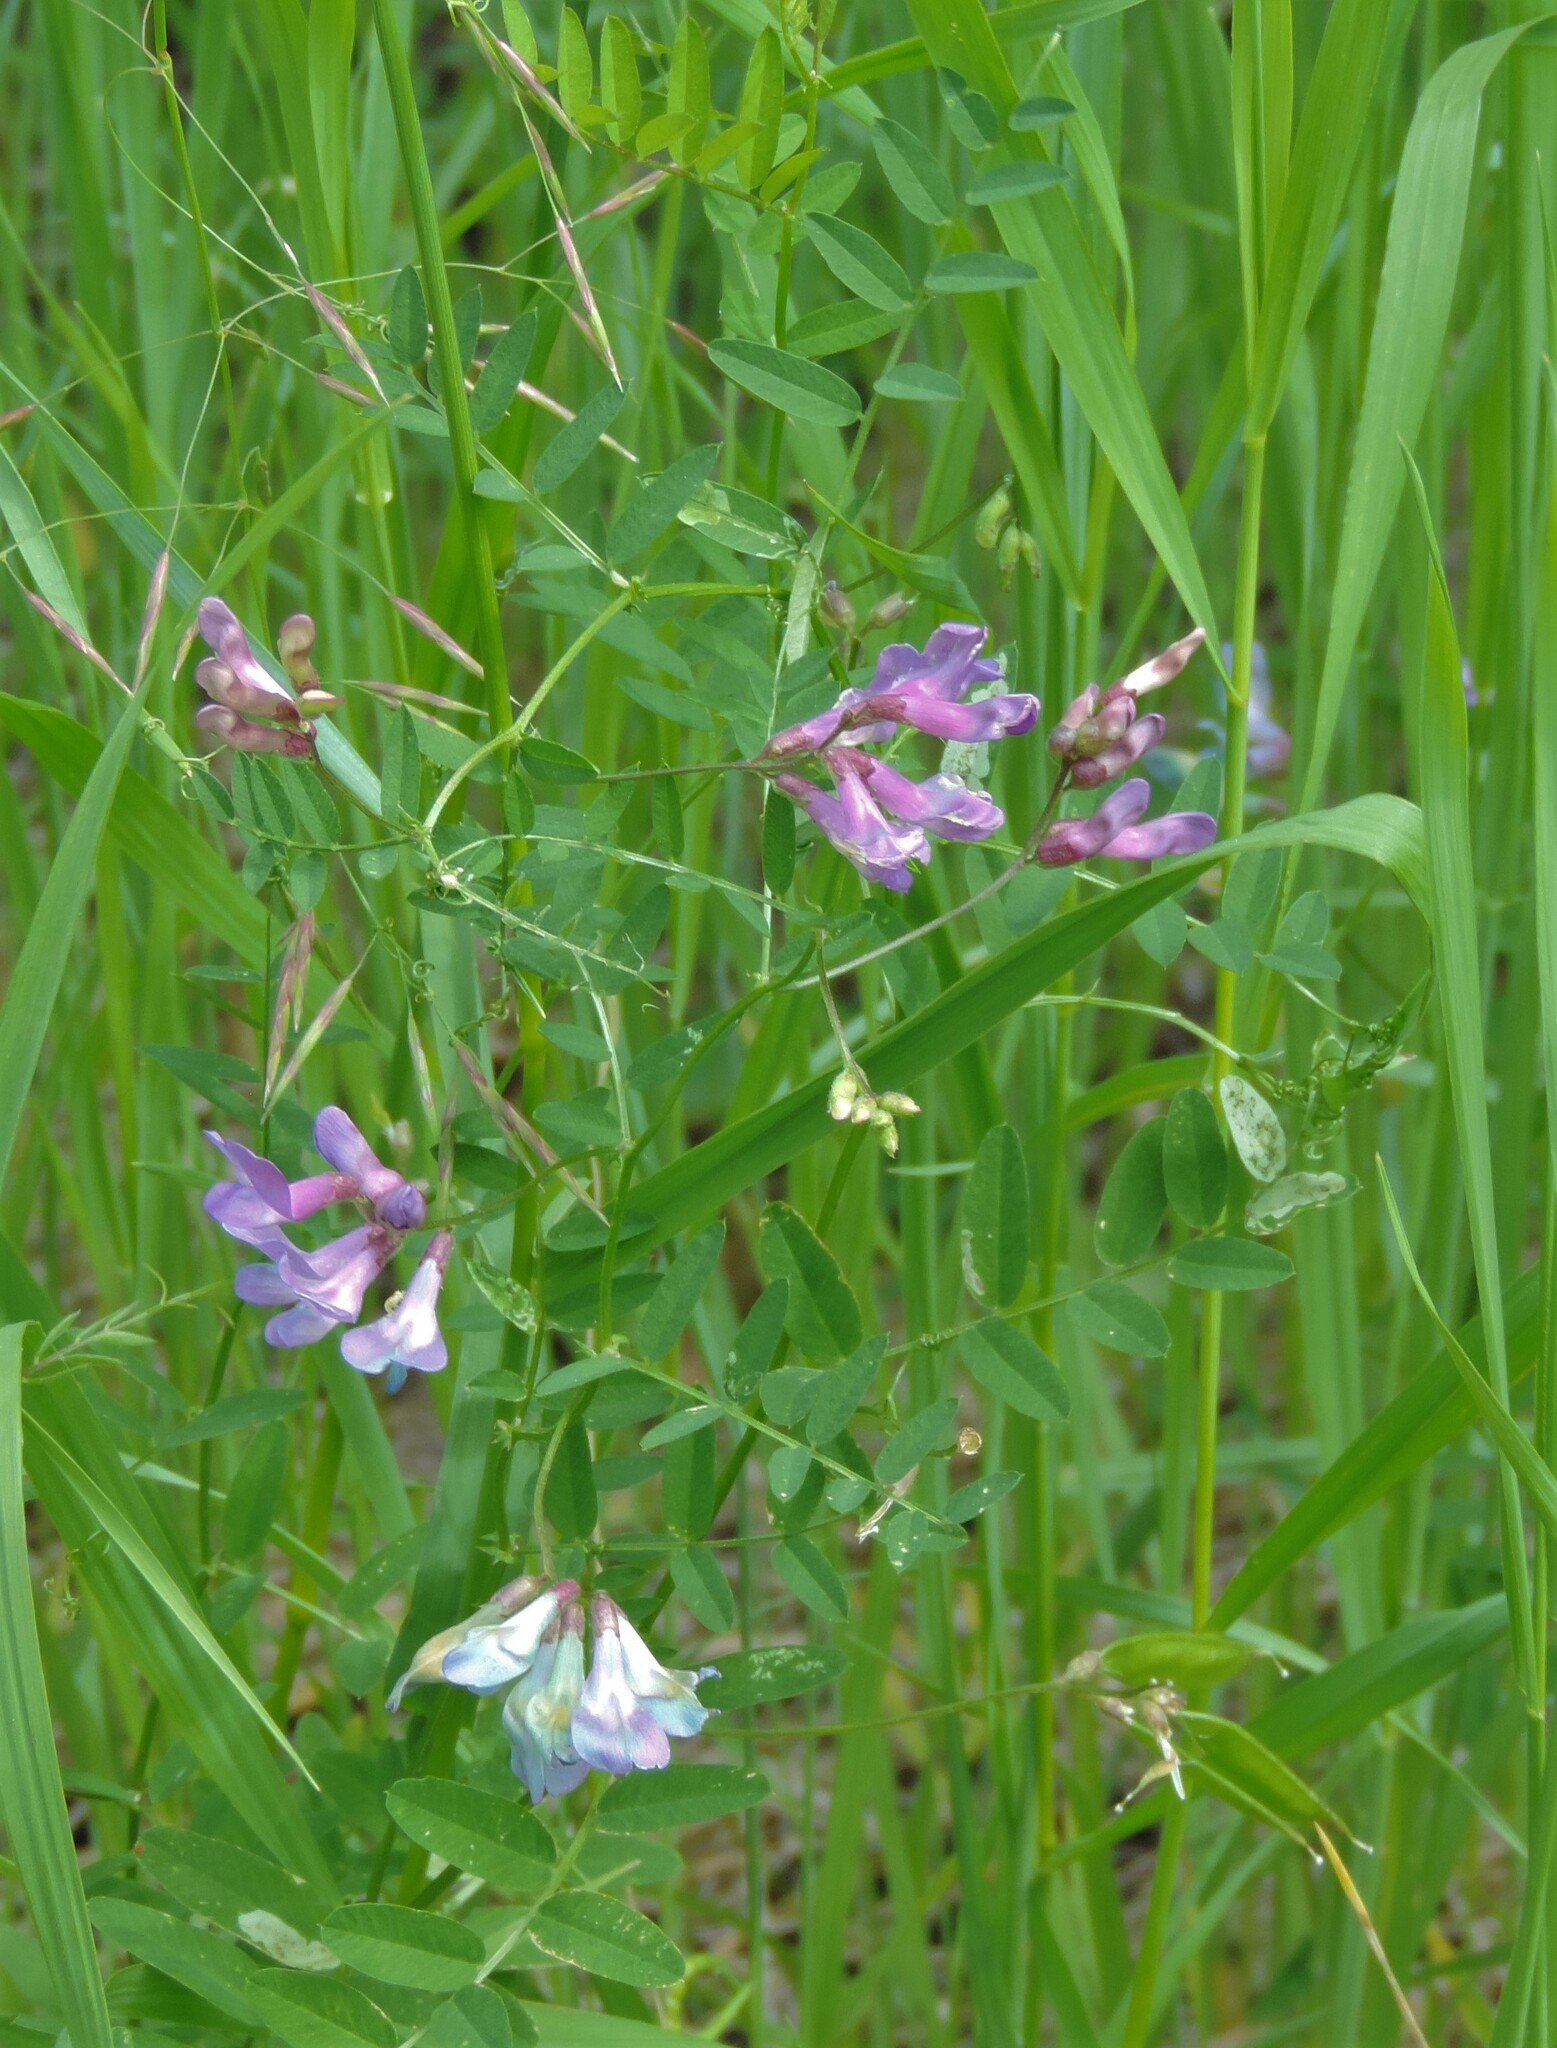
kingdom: Plantae
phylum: Tracheophyta
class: Magnoliopsida
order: Fabales
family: Fabaceae
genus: Vicia
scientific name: Vicia americana
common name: American vetch
